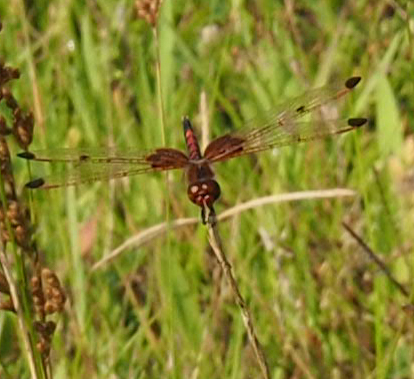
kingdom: Animalia
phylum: Arthropoda
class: Insecta
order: Odonata
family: Libellulidae
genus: Celithemis
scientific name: Celithemis elisa
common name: Calico pennant
